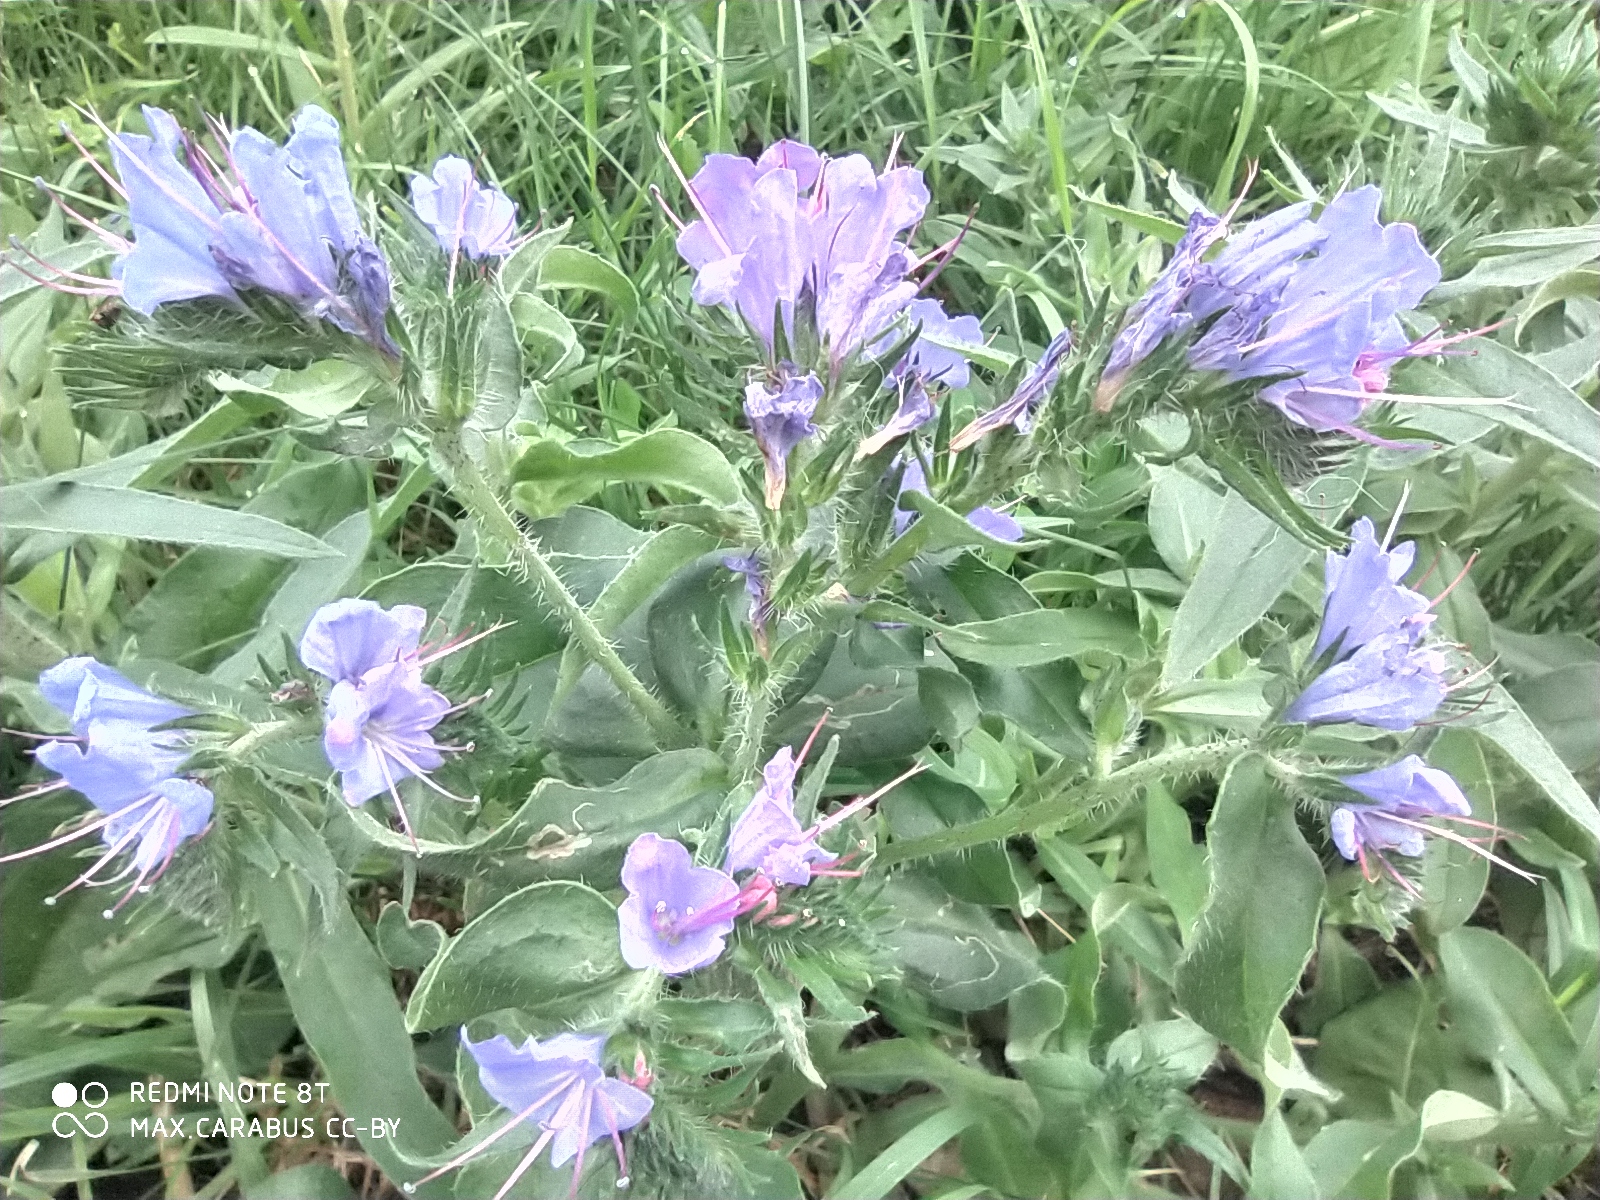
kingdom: Plantae
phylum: Tracheophyta
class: Magnoliopsida
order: Boraginales
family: Boraginaceae
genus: Echium
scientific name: Echium vulgare
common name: Common viper's bugloss
